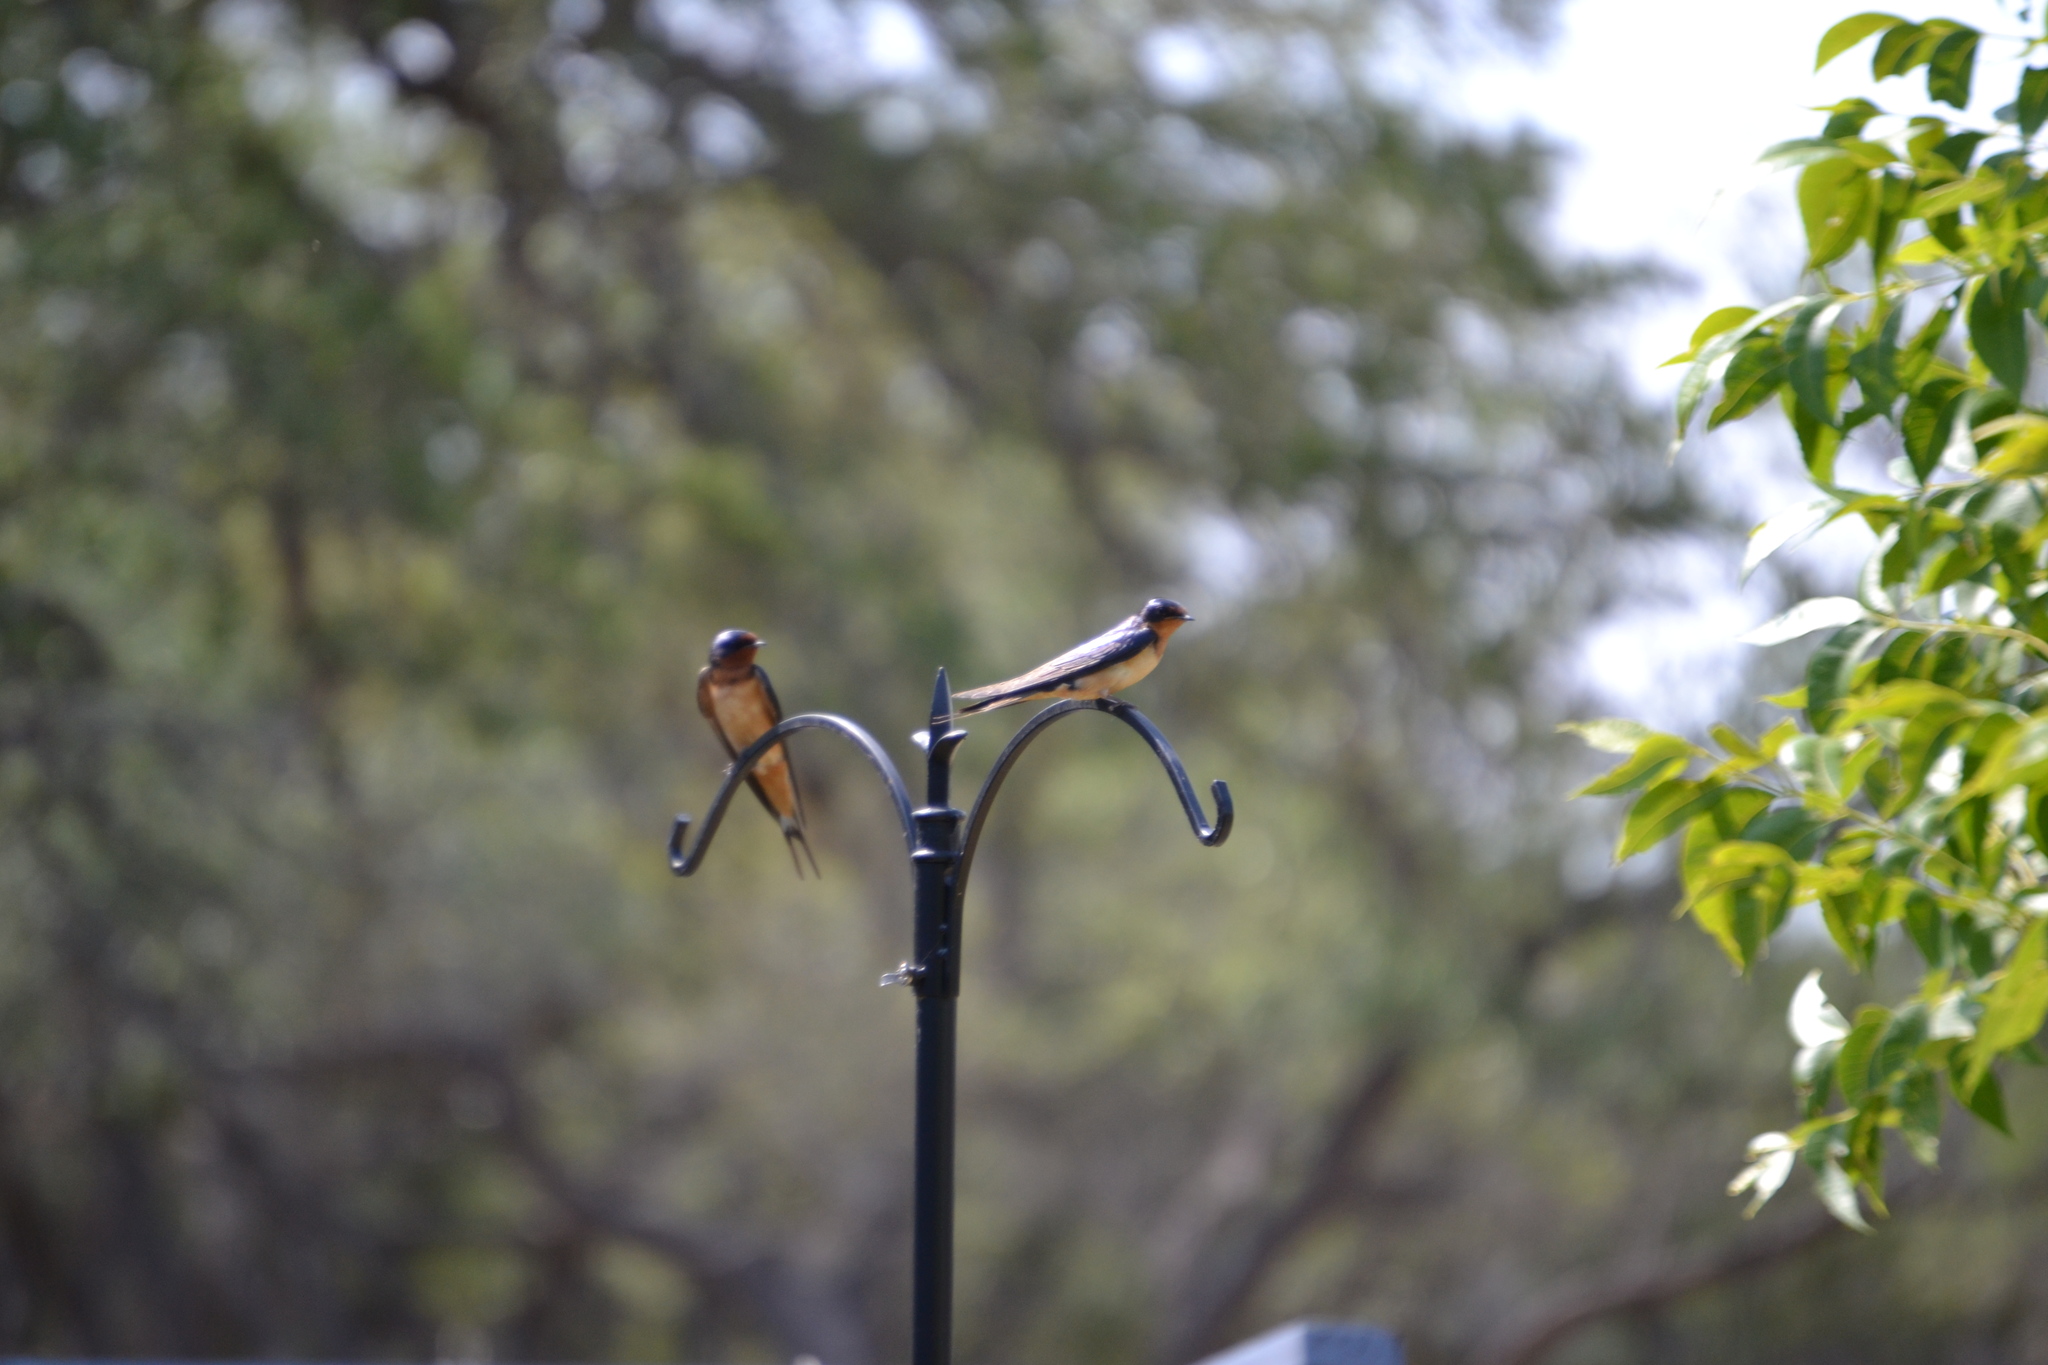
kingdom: Animalia
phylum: Chordata
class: Aves
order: Passeriformes
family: Hirundinidae
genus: Hirundo
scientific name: Hirundo rustica
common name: Barn swallow
